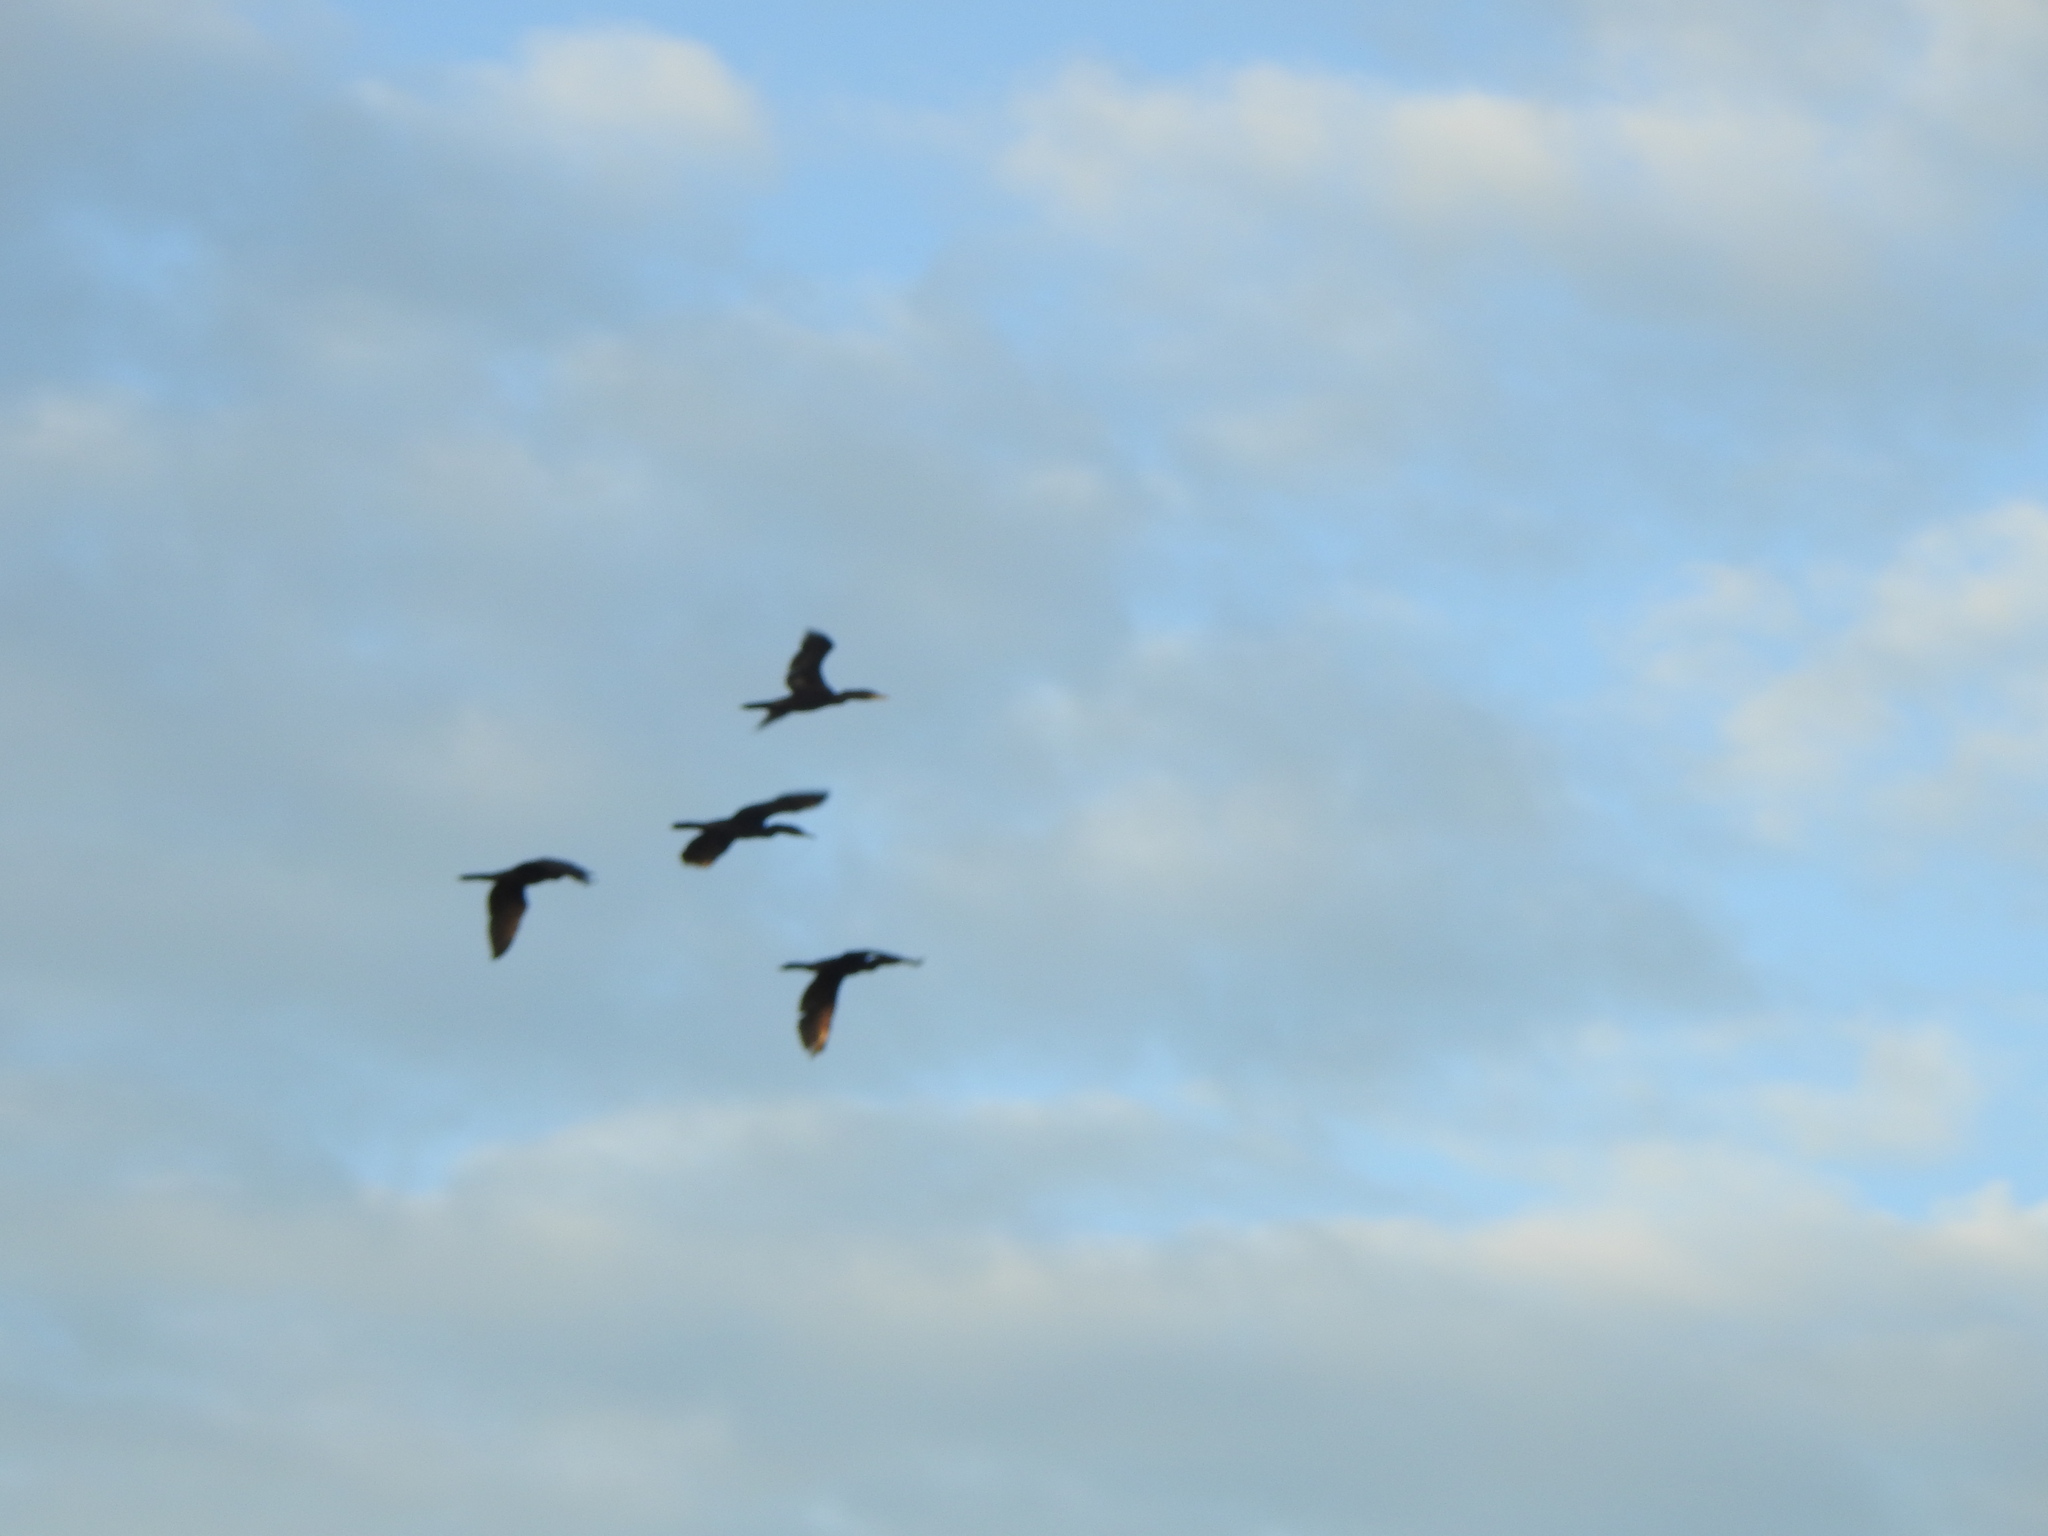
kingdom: Animalia
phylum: Chordata
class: Aves
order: Suliformes
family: Phalacrocoracidae
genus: Phalacrocorax
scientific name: Phalacrocorax brasilianus
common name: Neotropic cormorant
